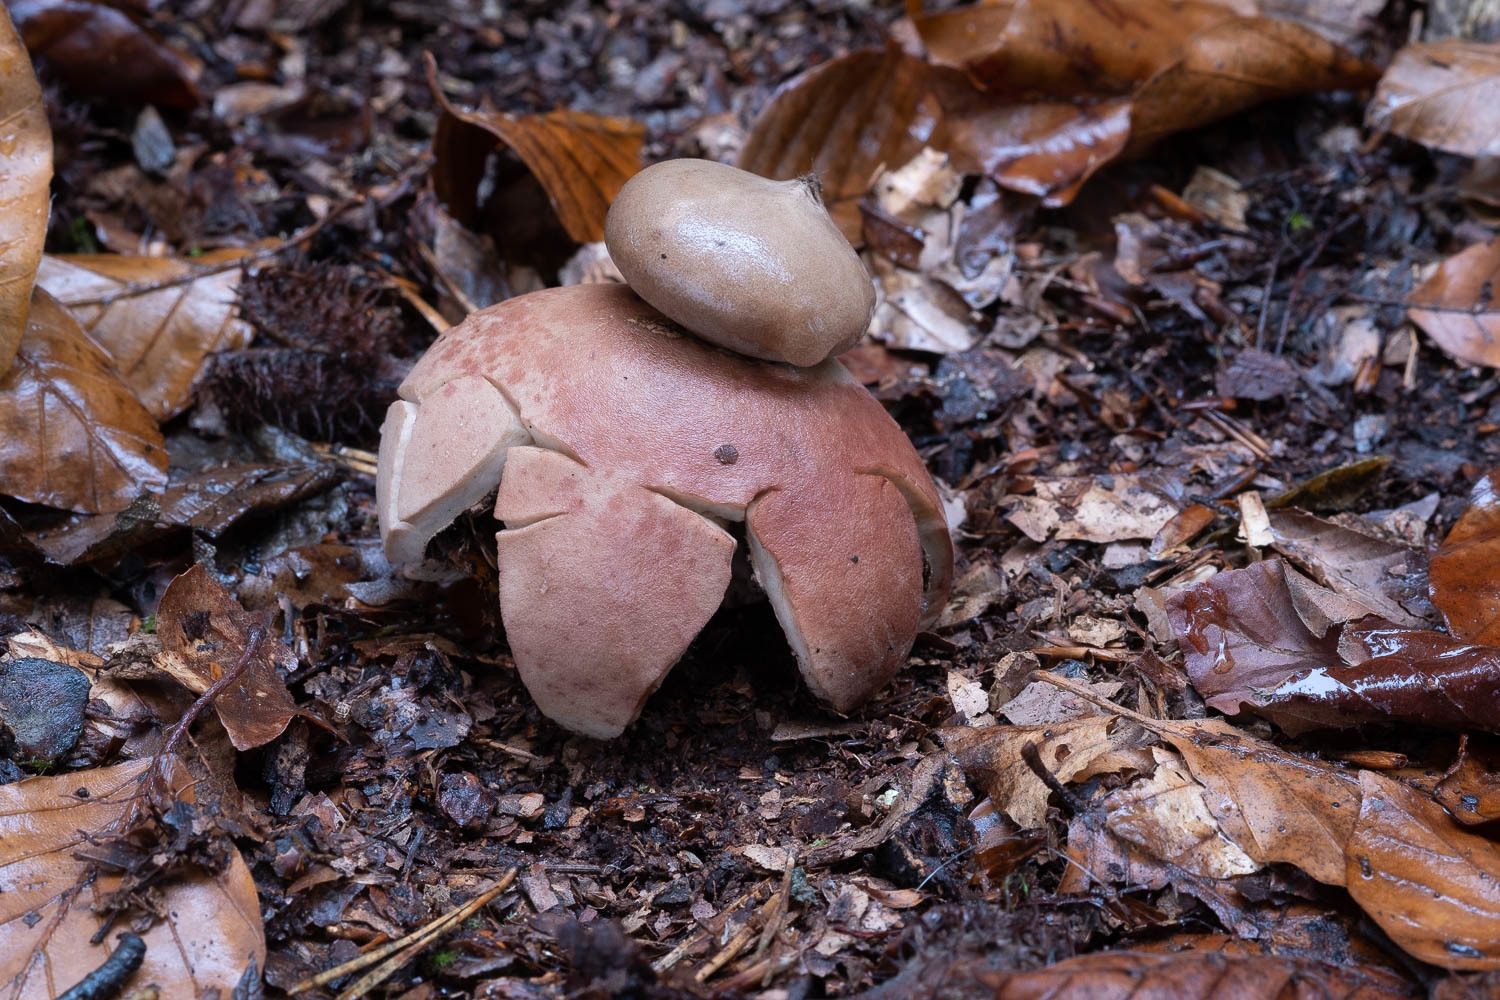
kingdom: Fungi
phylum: Basidiomycota
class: Agaricomycetes
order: Geastrales
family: Geastraceae
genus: Geastrum
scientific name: Geastrum rufescens
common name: Rosy earthstar
